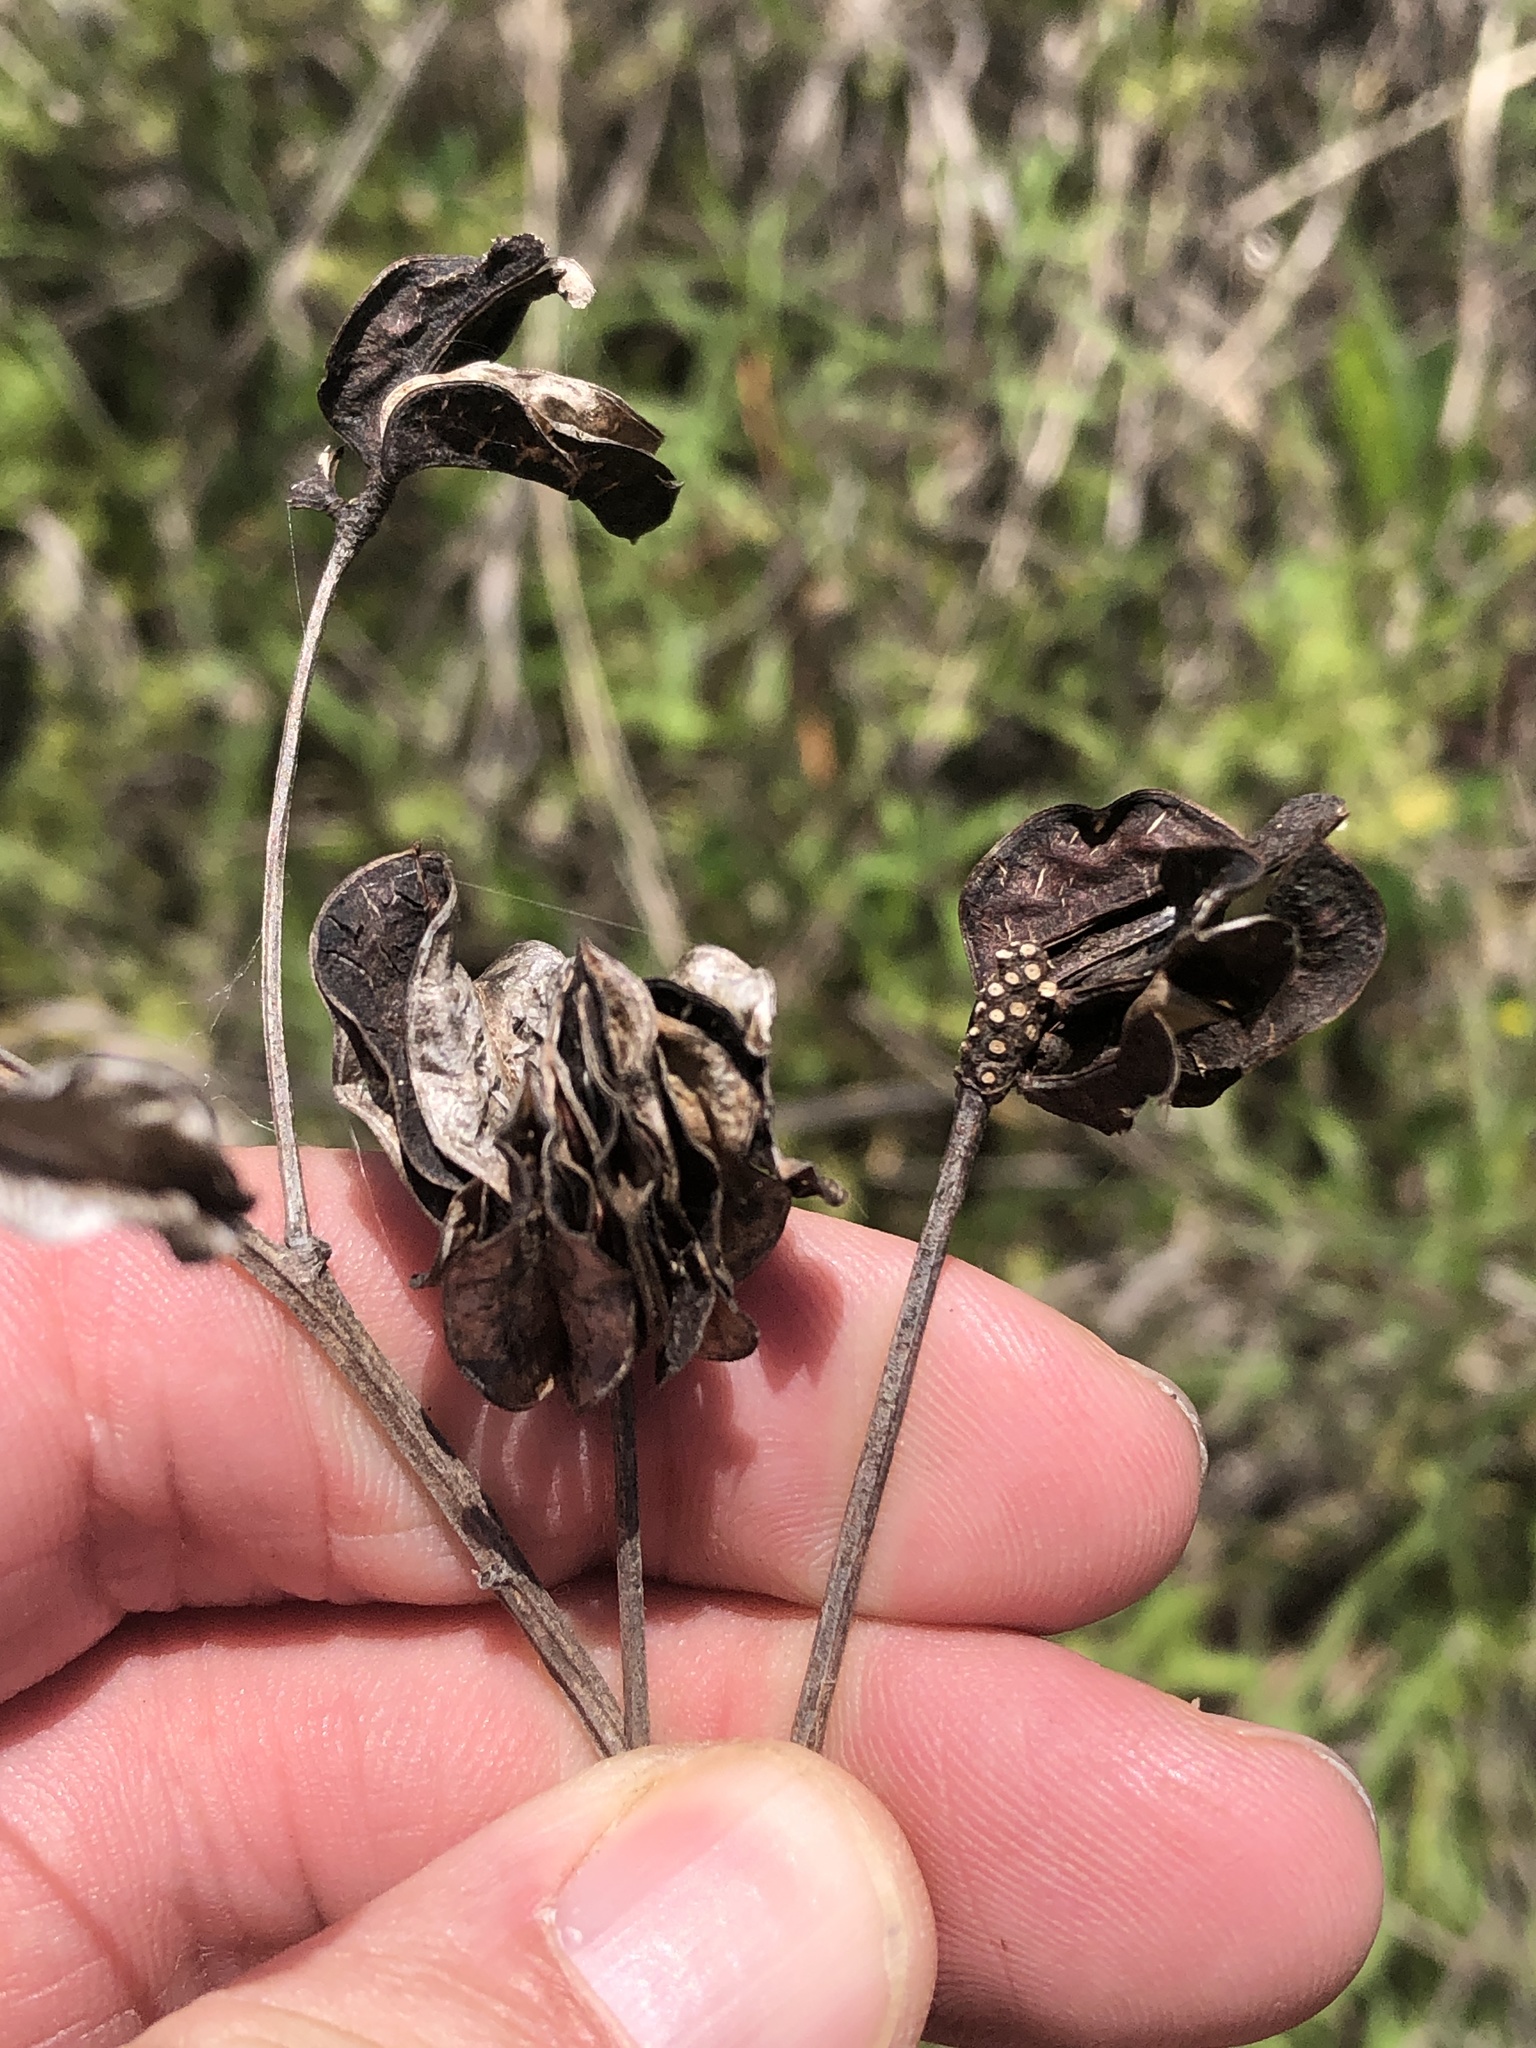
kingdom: Plantae
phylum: Tracheophyta
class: Magnoliopsida
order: Fabales
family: Fabaceae
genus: Desmanthus
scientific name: Desmanthus illinoensis
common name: Illinois bundle-flower
